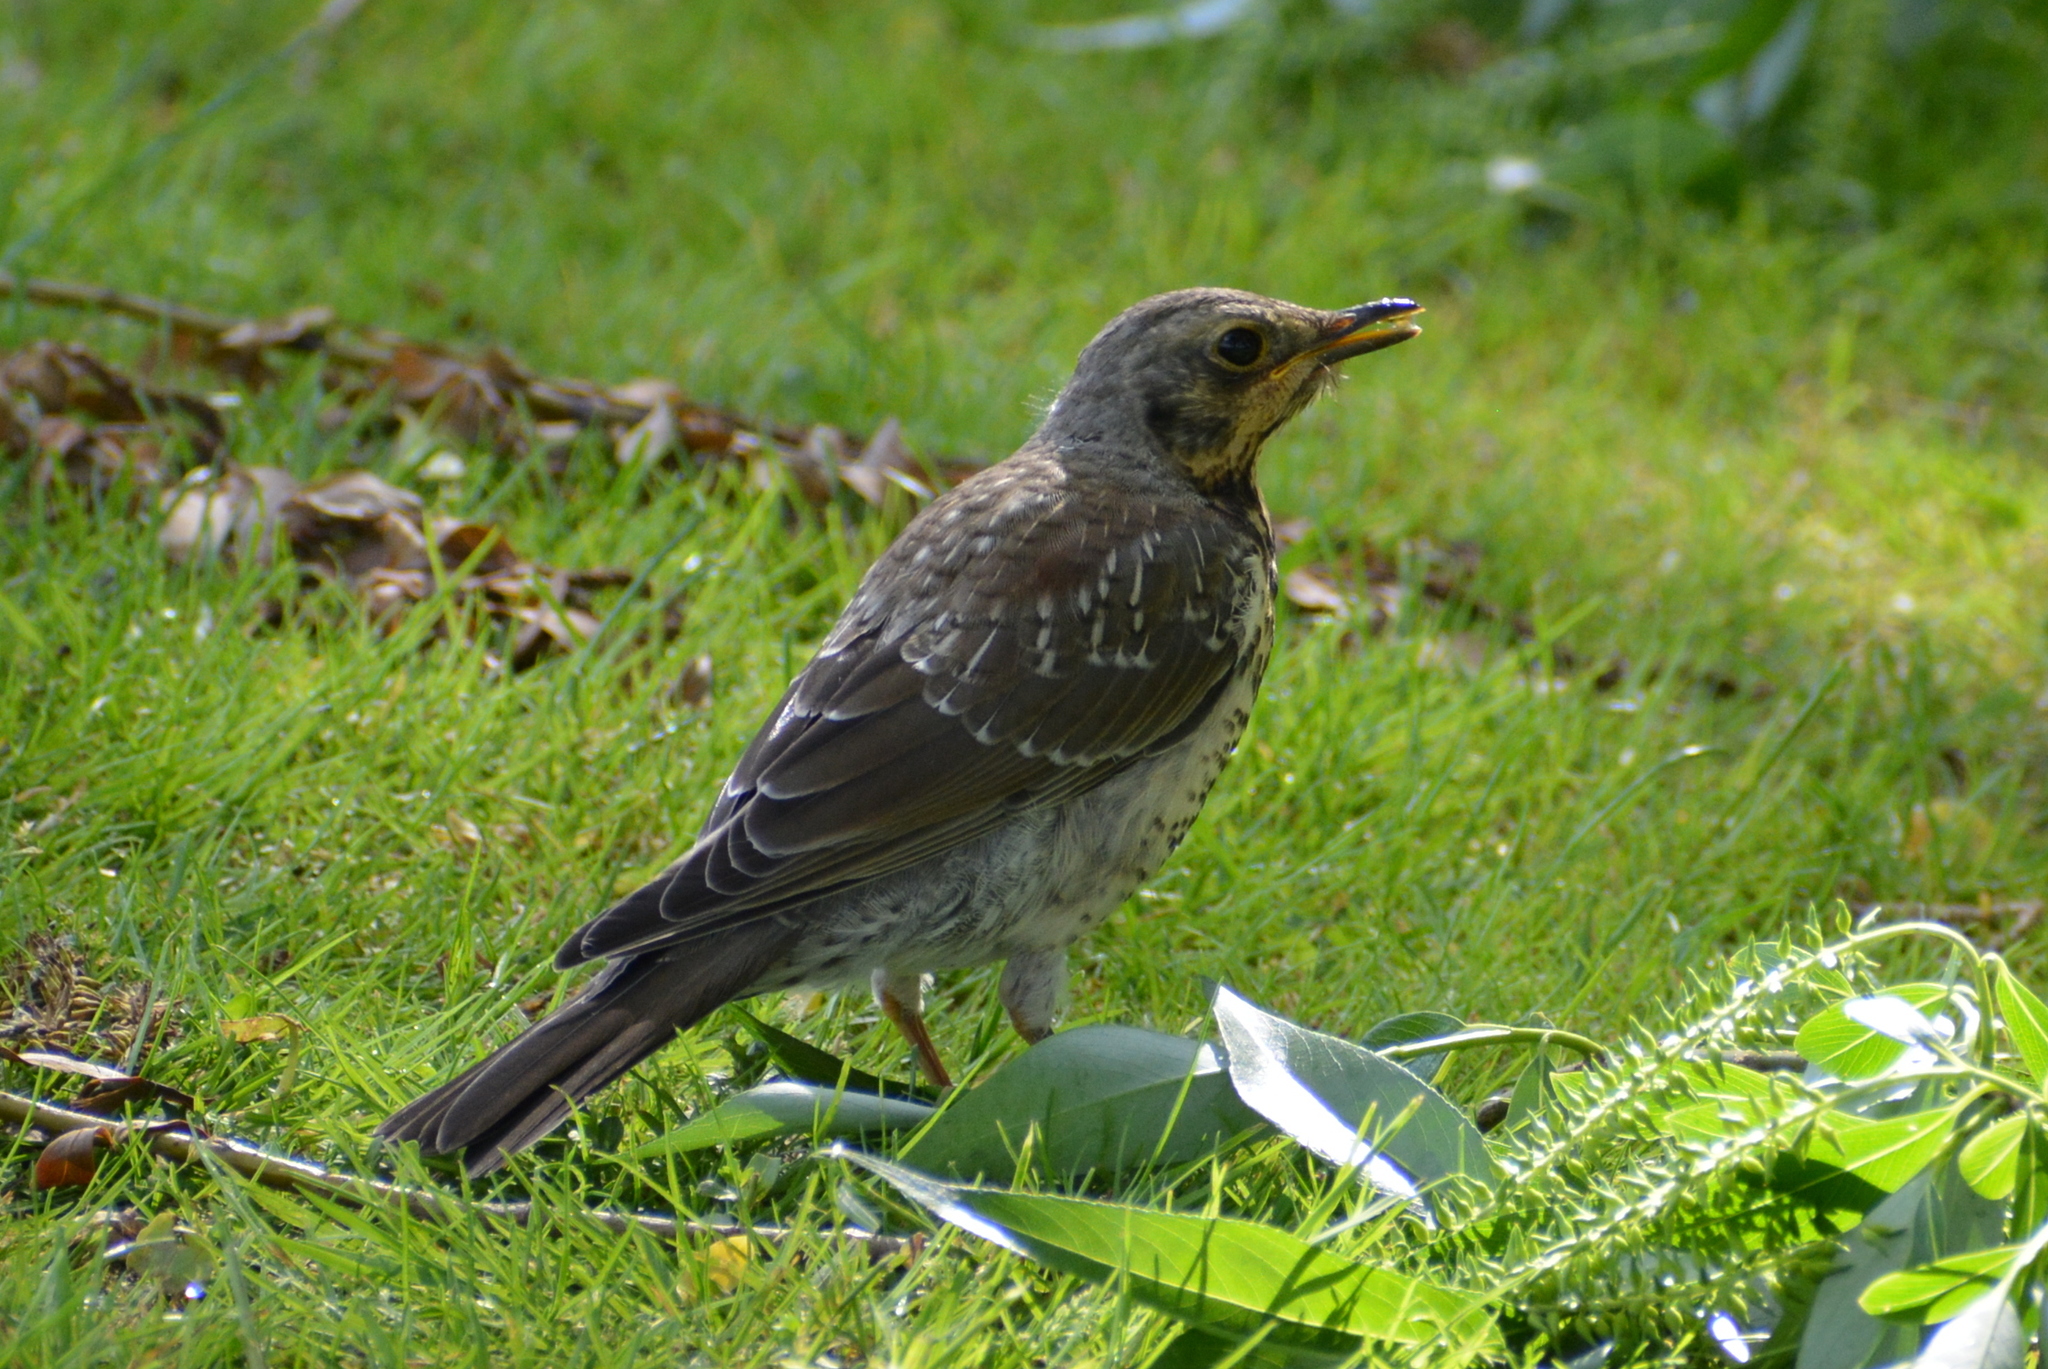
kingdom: Animalia
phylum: Chordata
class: Aves
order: Passeriformes
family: Turdidae
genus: Turdus
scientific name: Turdus pilaris
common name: Fieldfare
